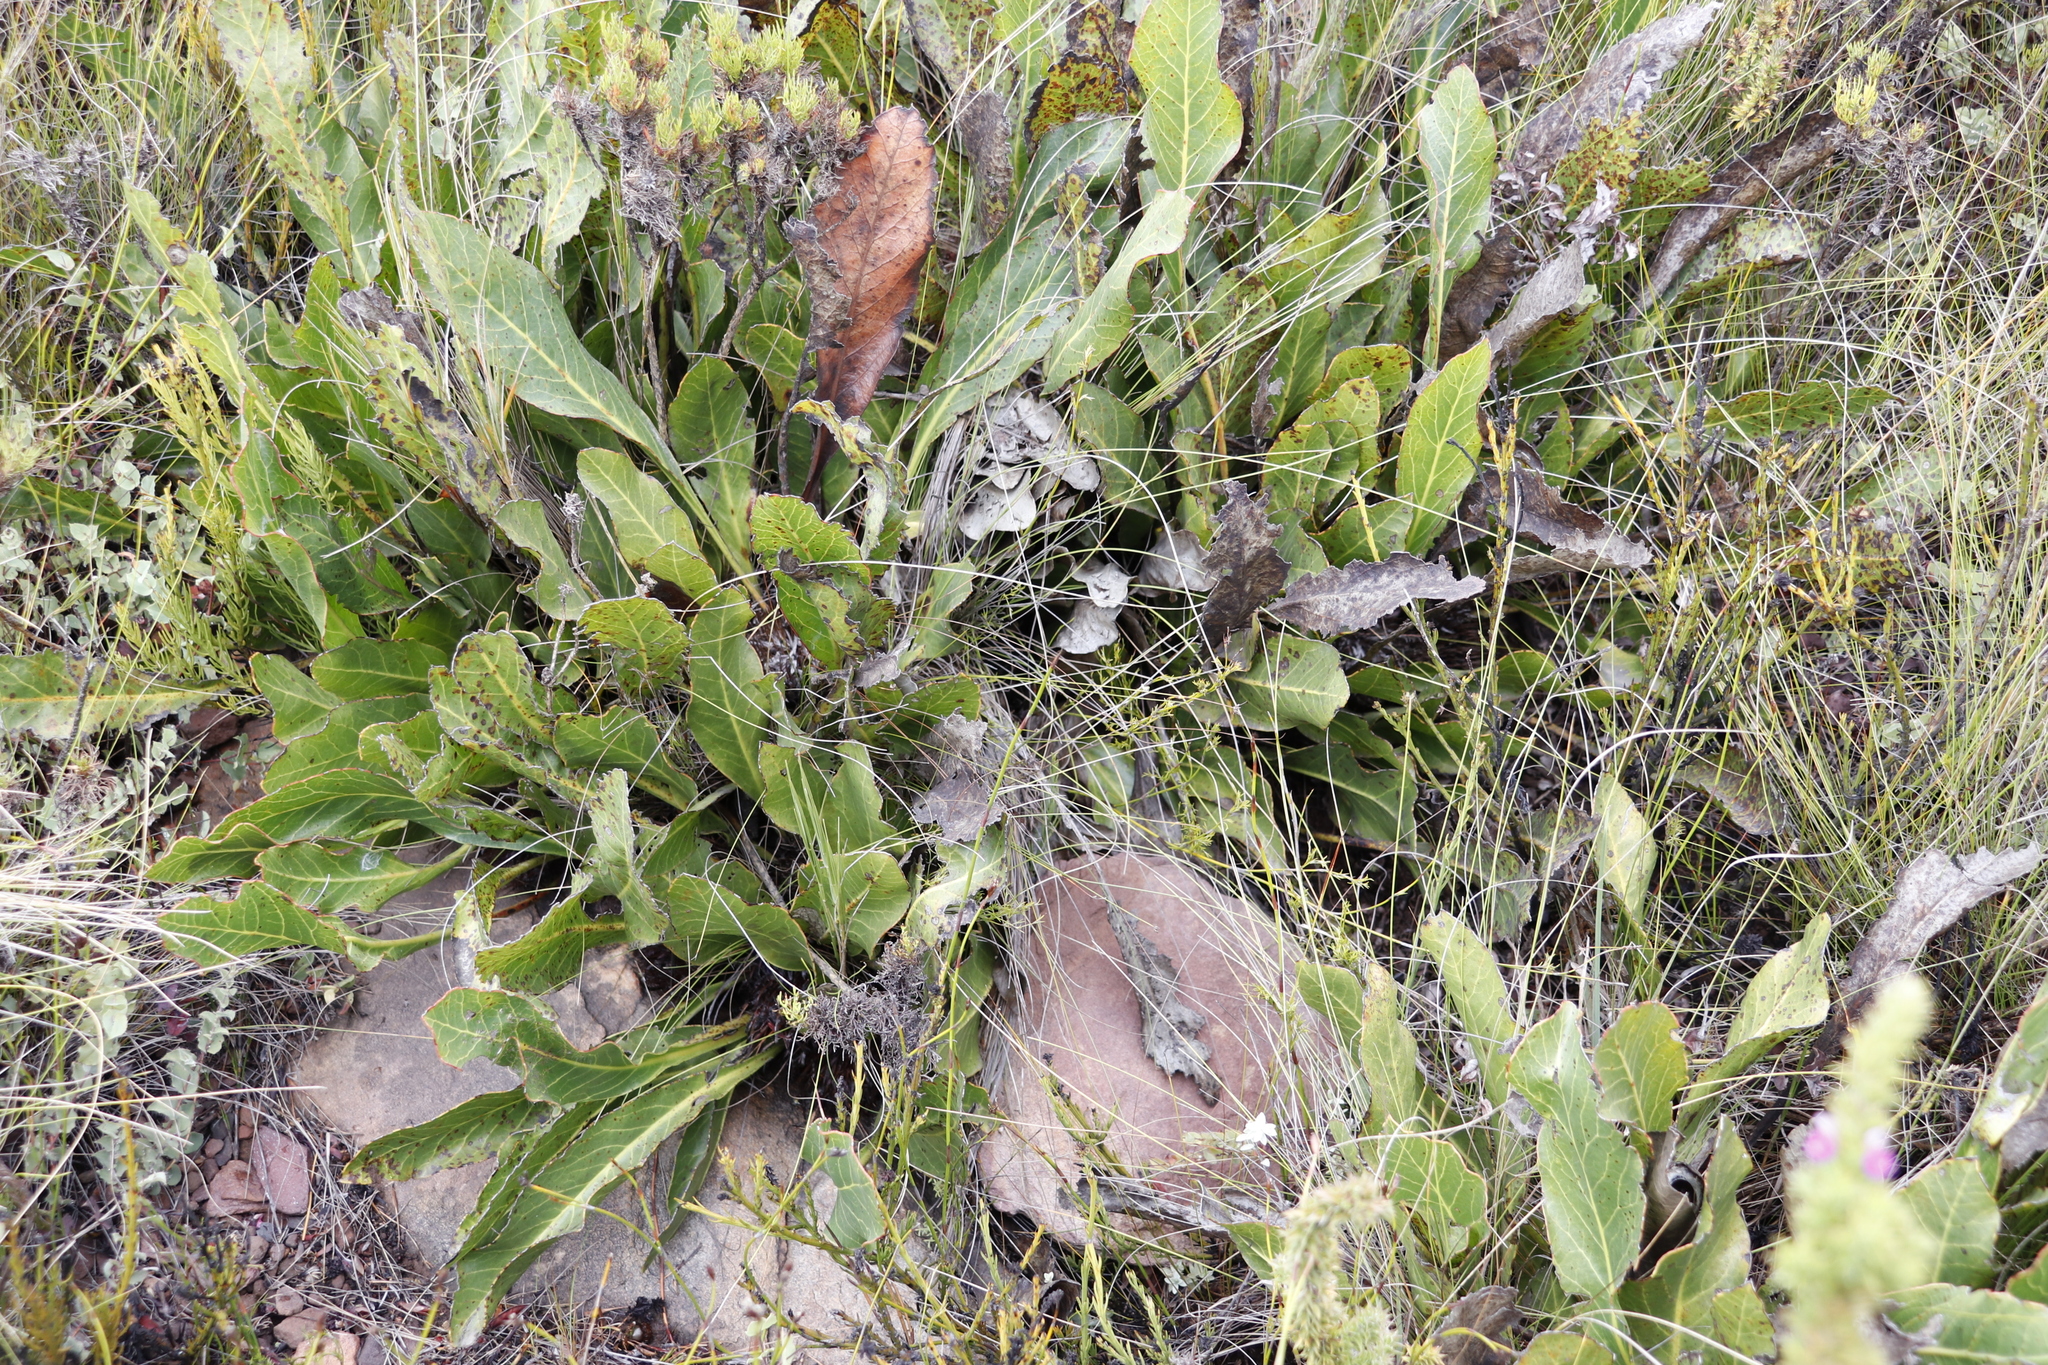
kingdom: Plantae
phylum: Tracheophyta
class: Magnoliopsida
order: Proteales
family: Proteaceae
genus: Protea
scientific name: Protea scolopendriifolia
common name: Harts-tongue-fern sugarbush
